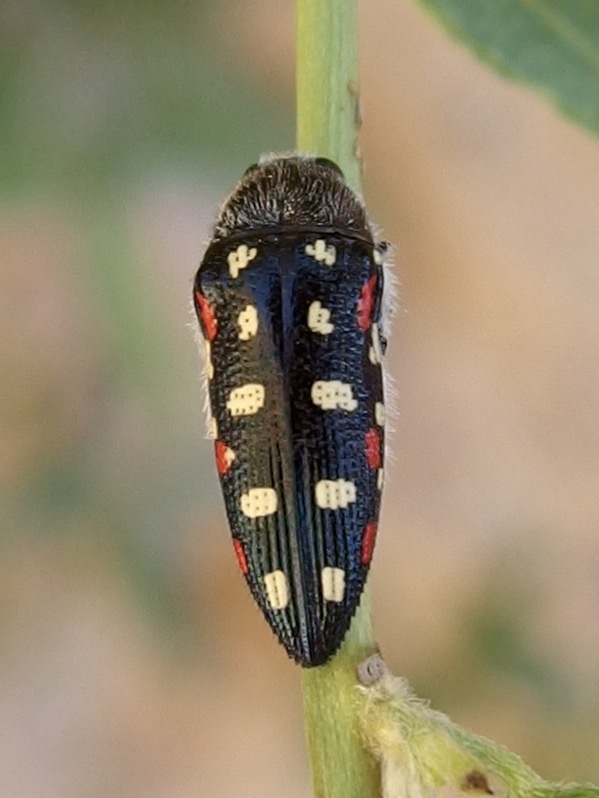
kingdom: Animalia
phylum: Arthropoda
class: Insecta
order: Coleoptera
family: Buprestidae
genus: Acmaeodera
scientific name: Acmaeodera gibbula
